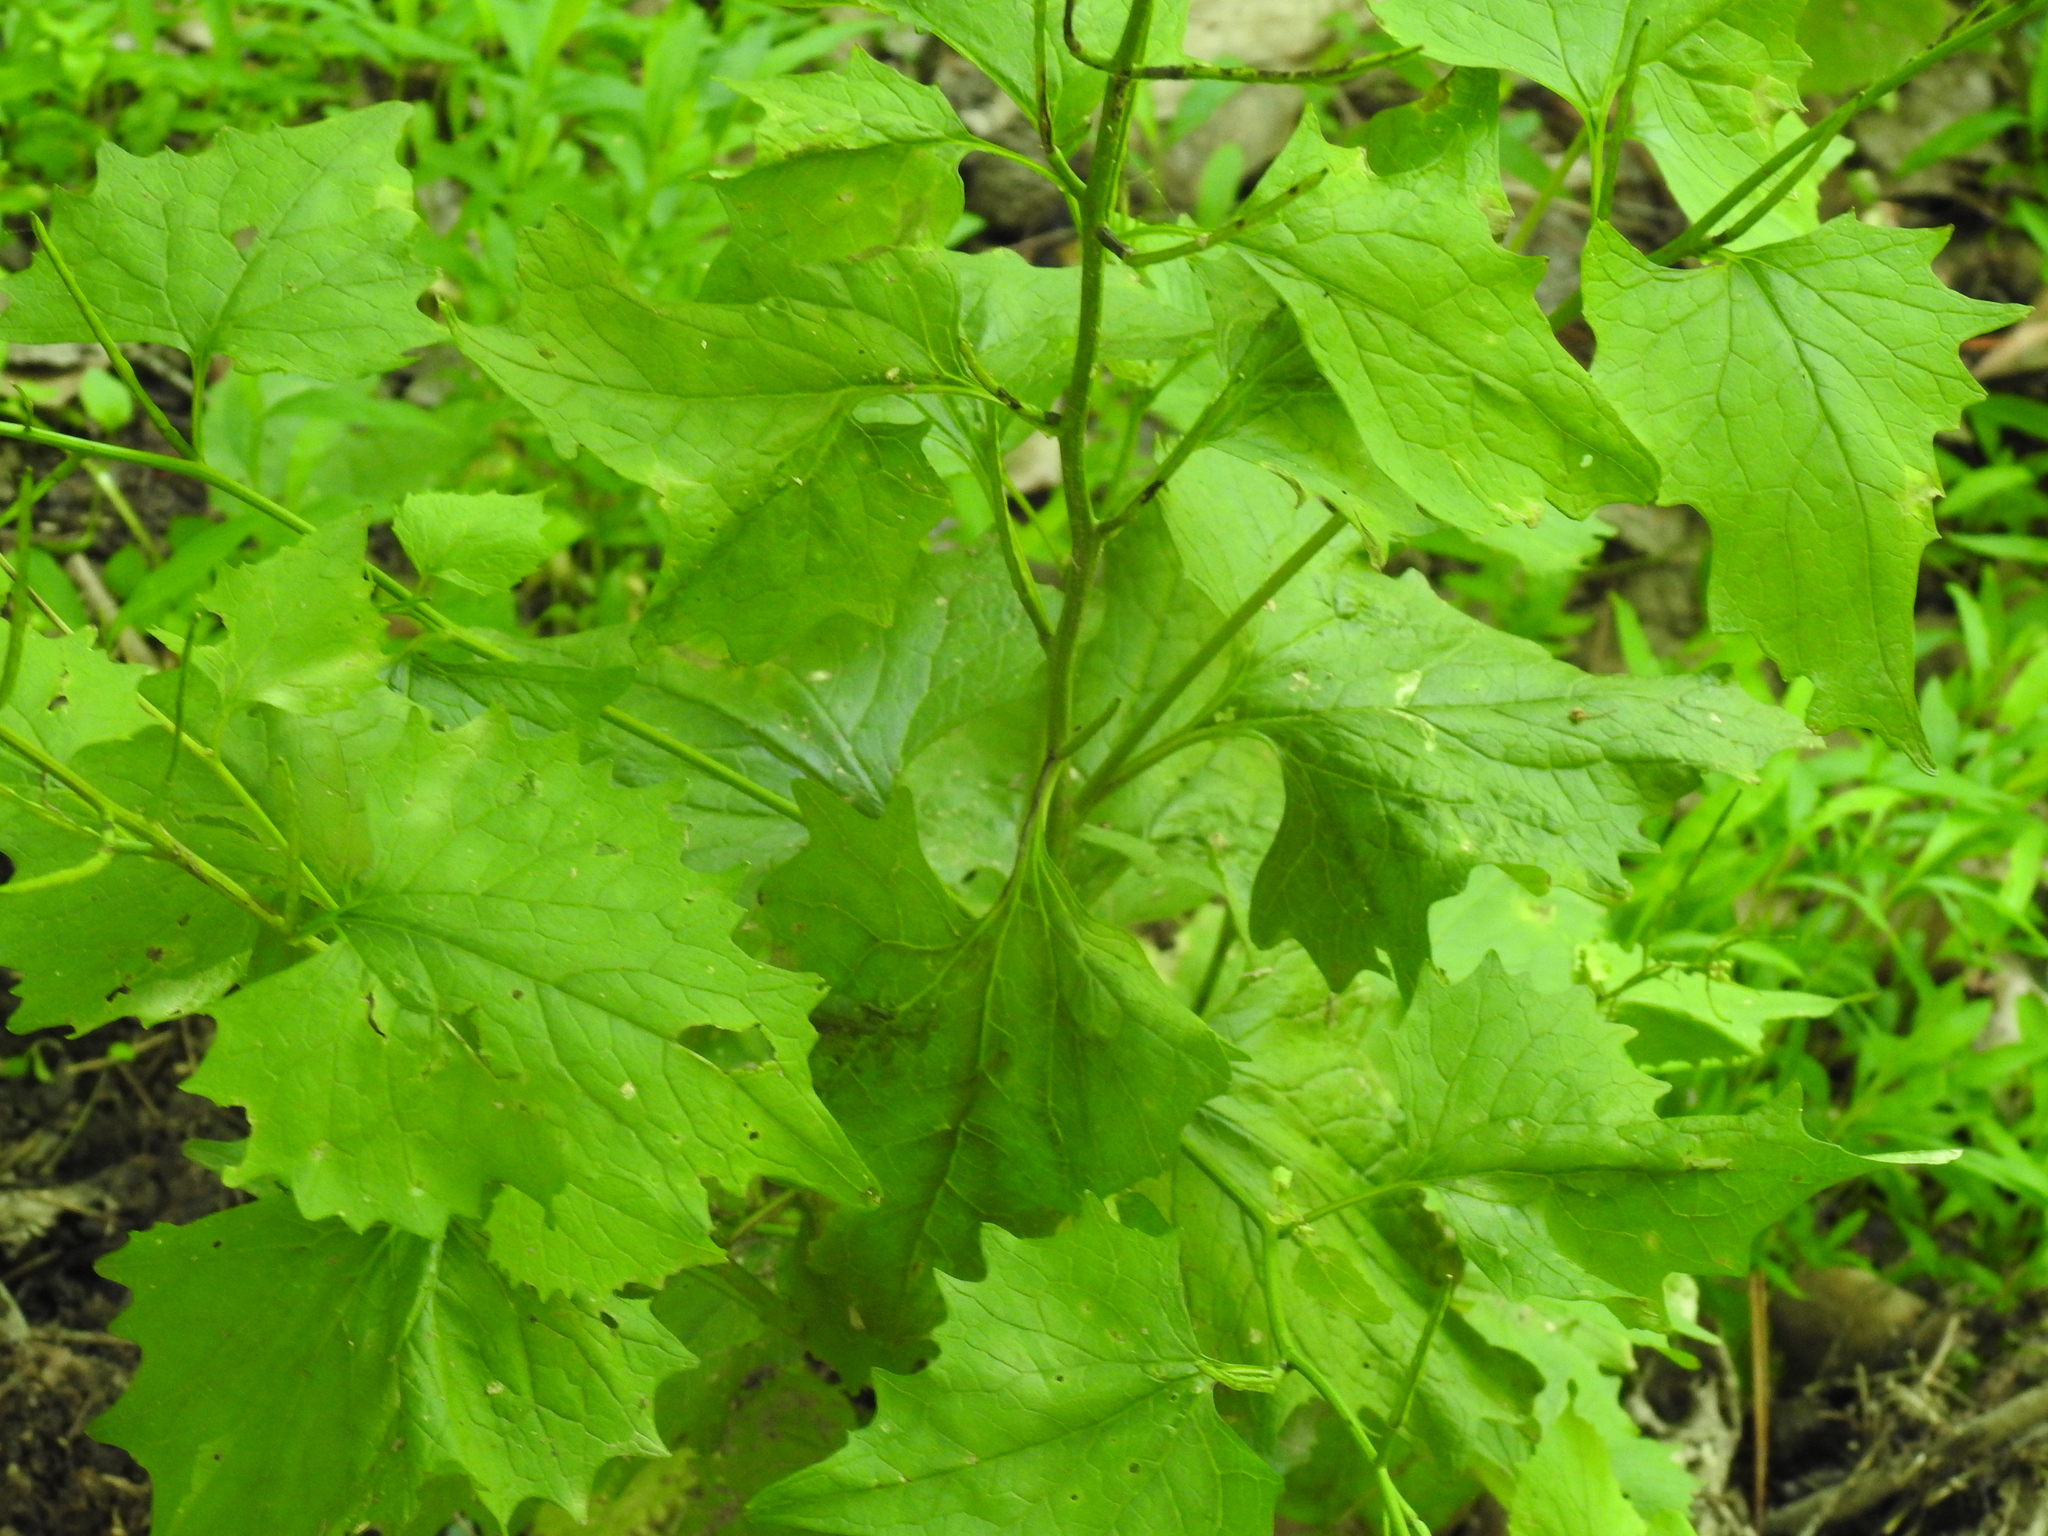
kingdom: Plantae
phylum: Tracheophyta
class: Magnoliopsida
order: Brassicales
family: Brassicaceae
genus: Alliaria
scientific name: Alliaria petiolata
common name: Garlic mustard
